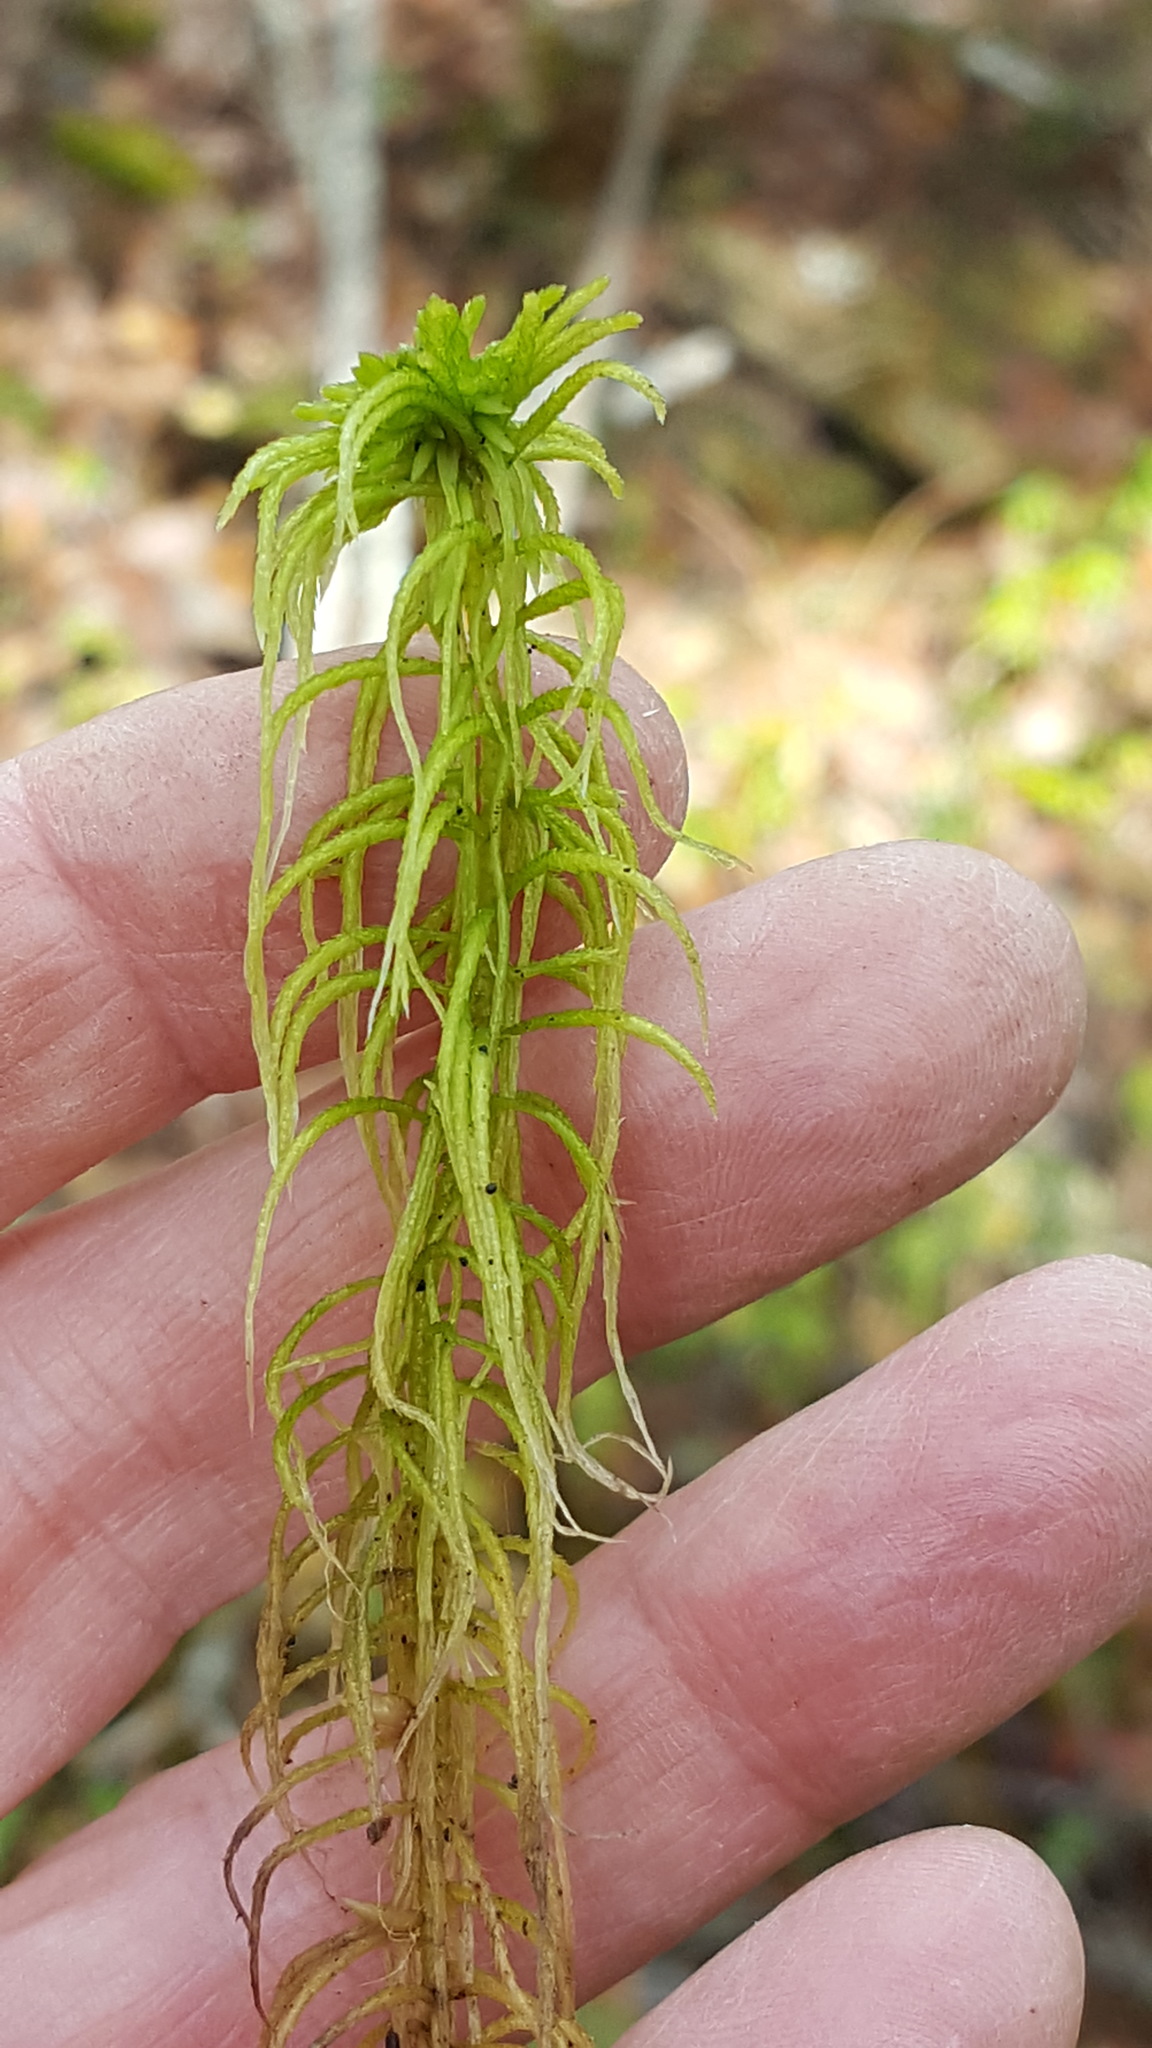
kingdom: Plantae
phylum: Bryophyta
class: Sphagnopsida
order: Sphagnales
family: Sphagnaceae
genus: Sphagnum
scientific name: Sphagnum girgensohnii
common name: Girgensohn's peat moss
